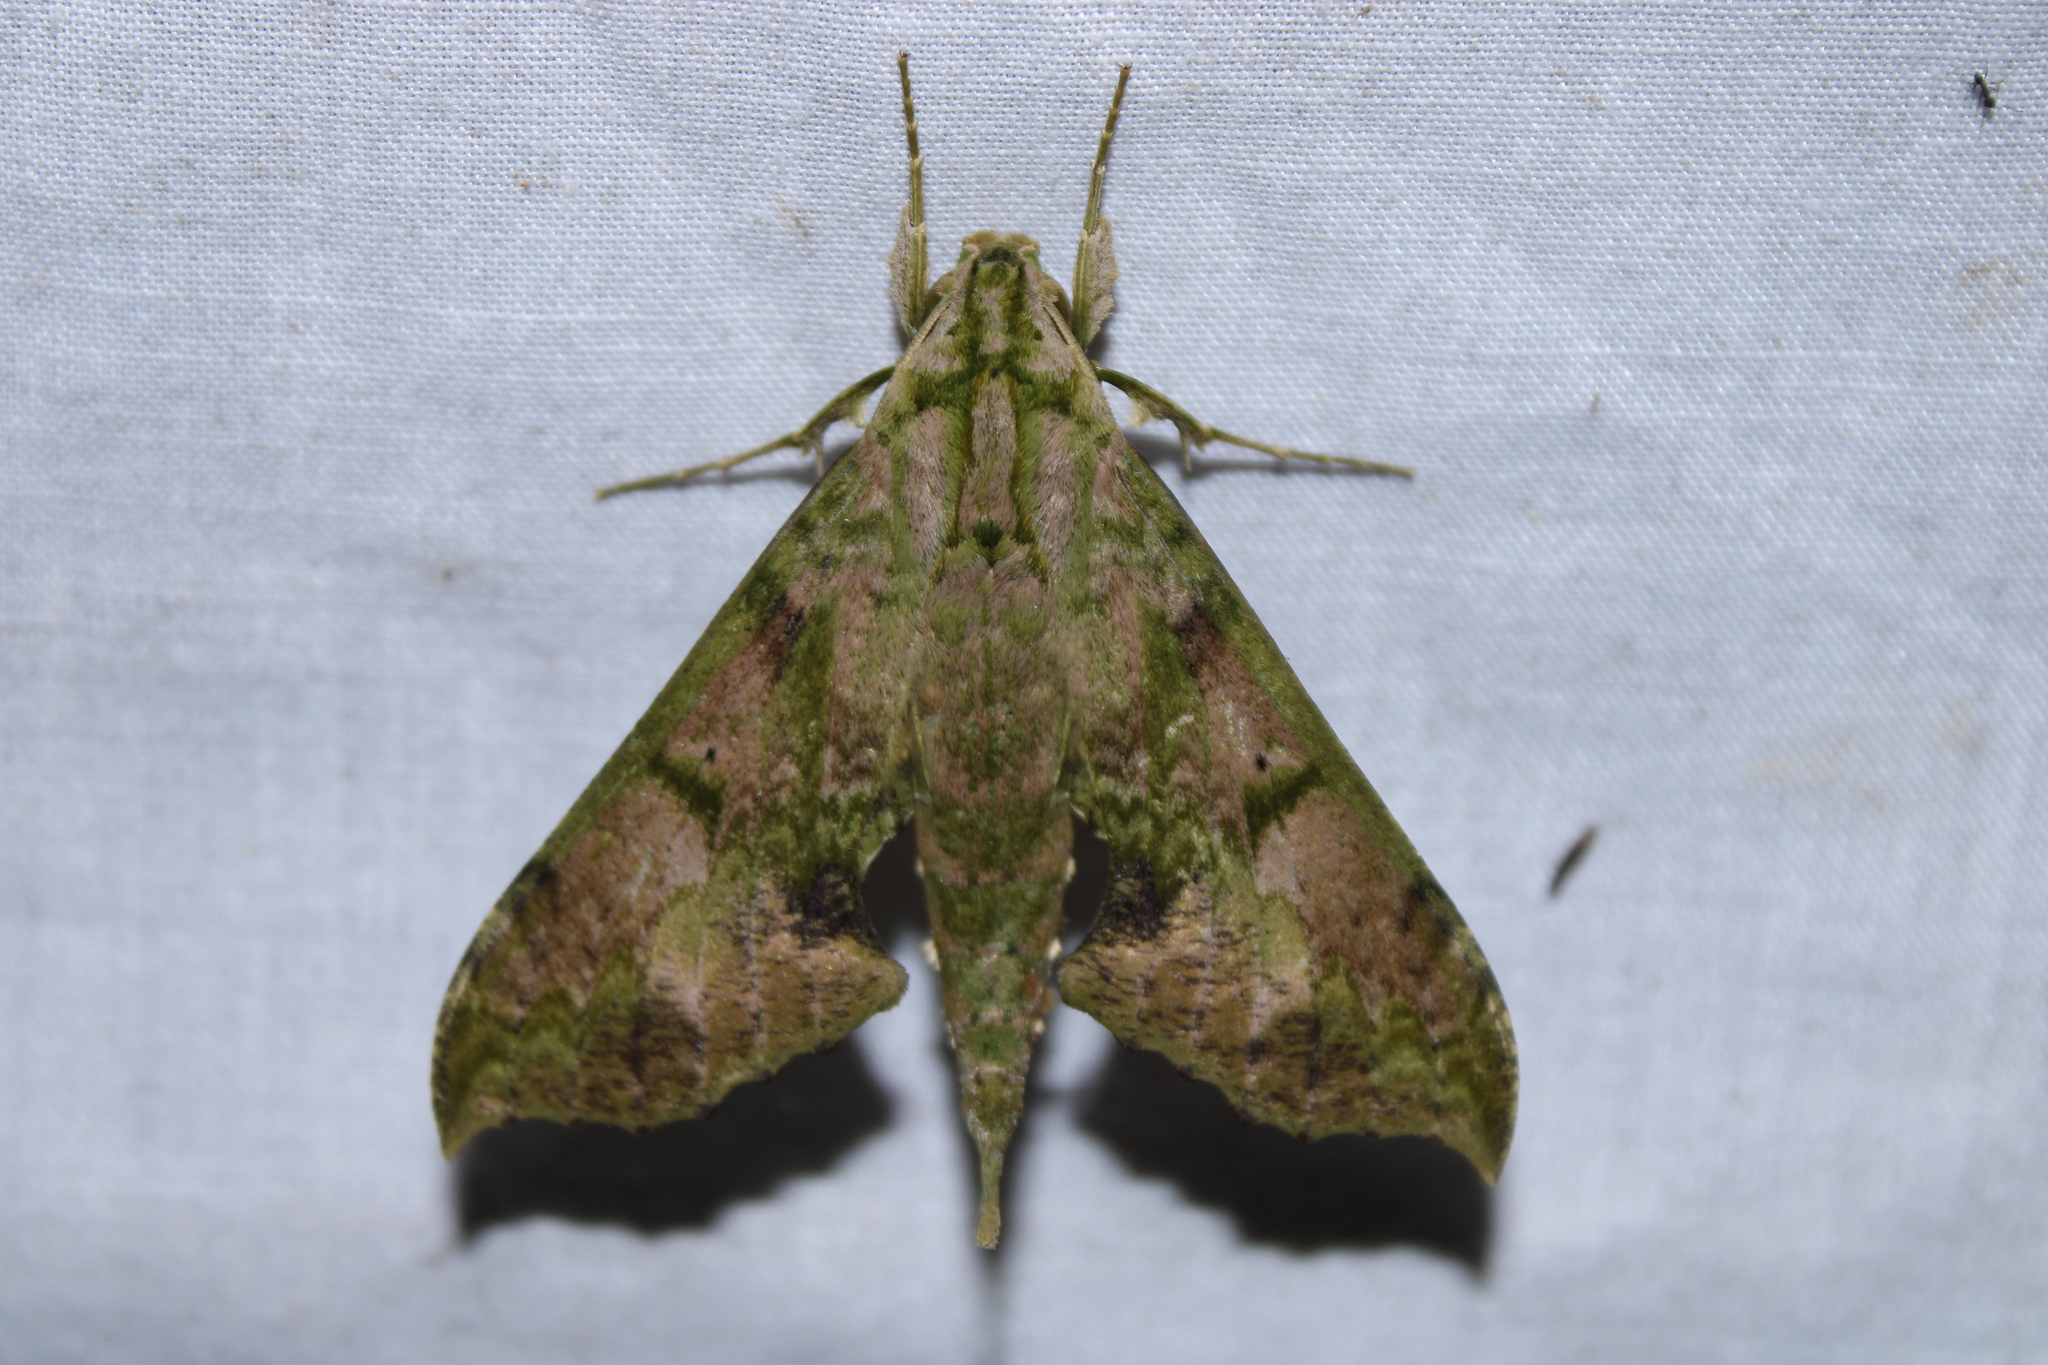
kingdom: Animalia
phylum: Arthropoda
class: Insecta
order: Lepidoptera
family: Sphingidae
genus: Xylophanes
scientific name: Xylophanes zurcheri
